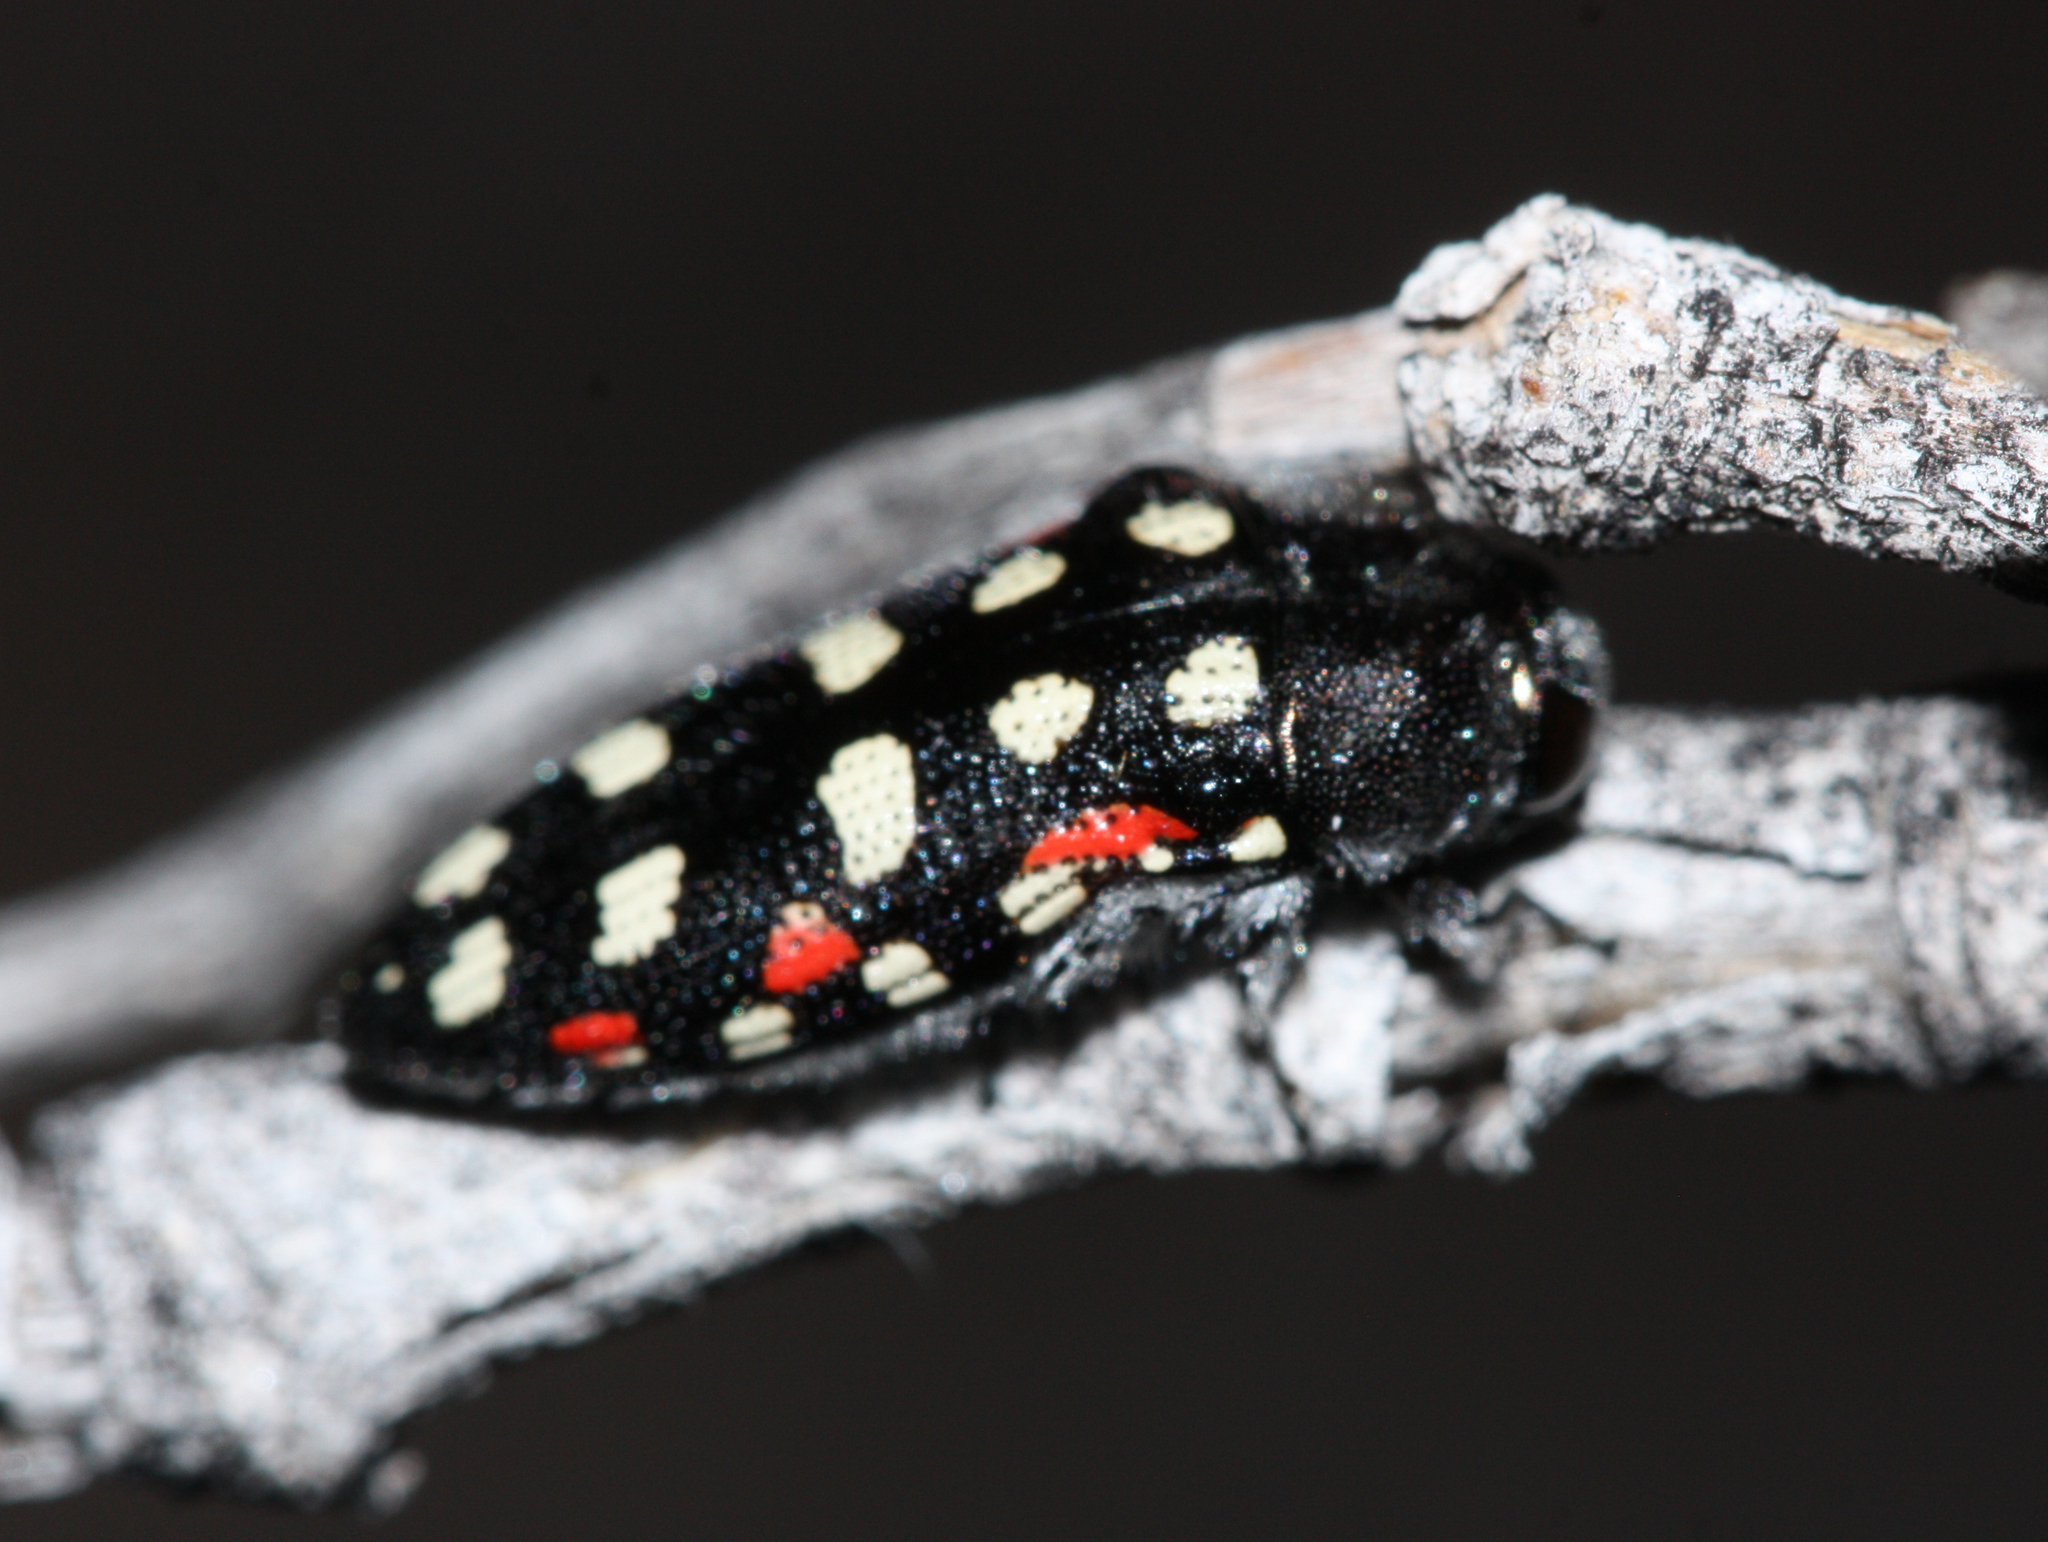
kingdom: Animalia
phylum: Arthropoda
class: Insecta
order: Coleoptera
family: Buprestidae
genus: Acmaeodera
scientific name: Acmaeodera gibbula
